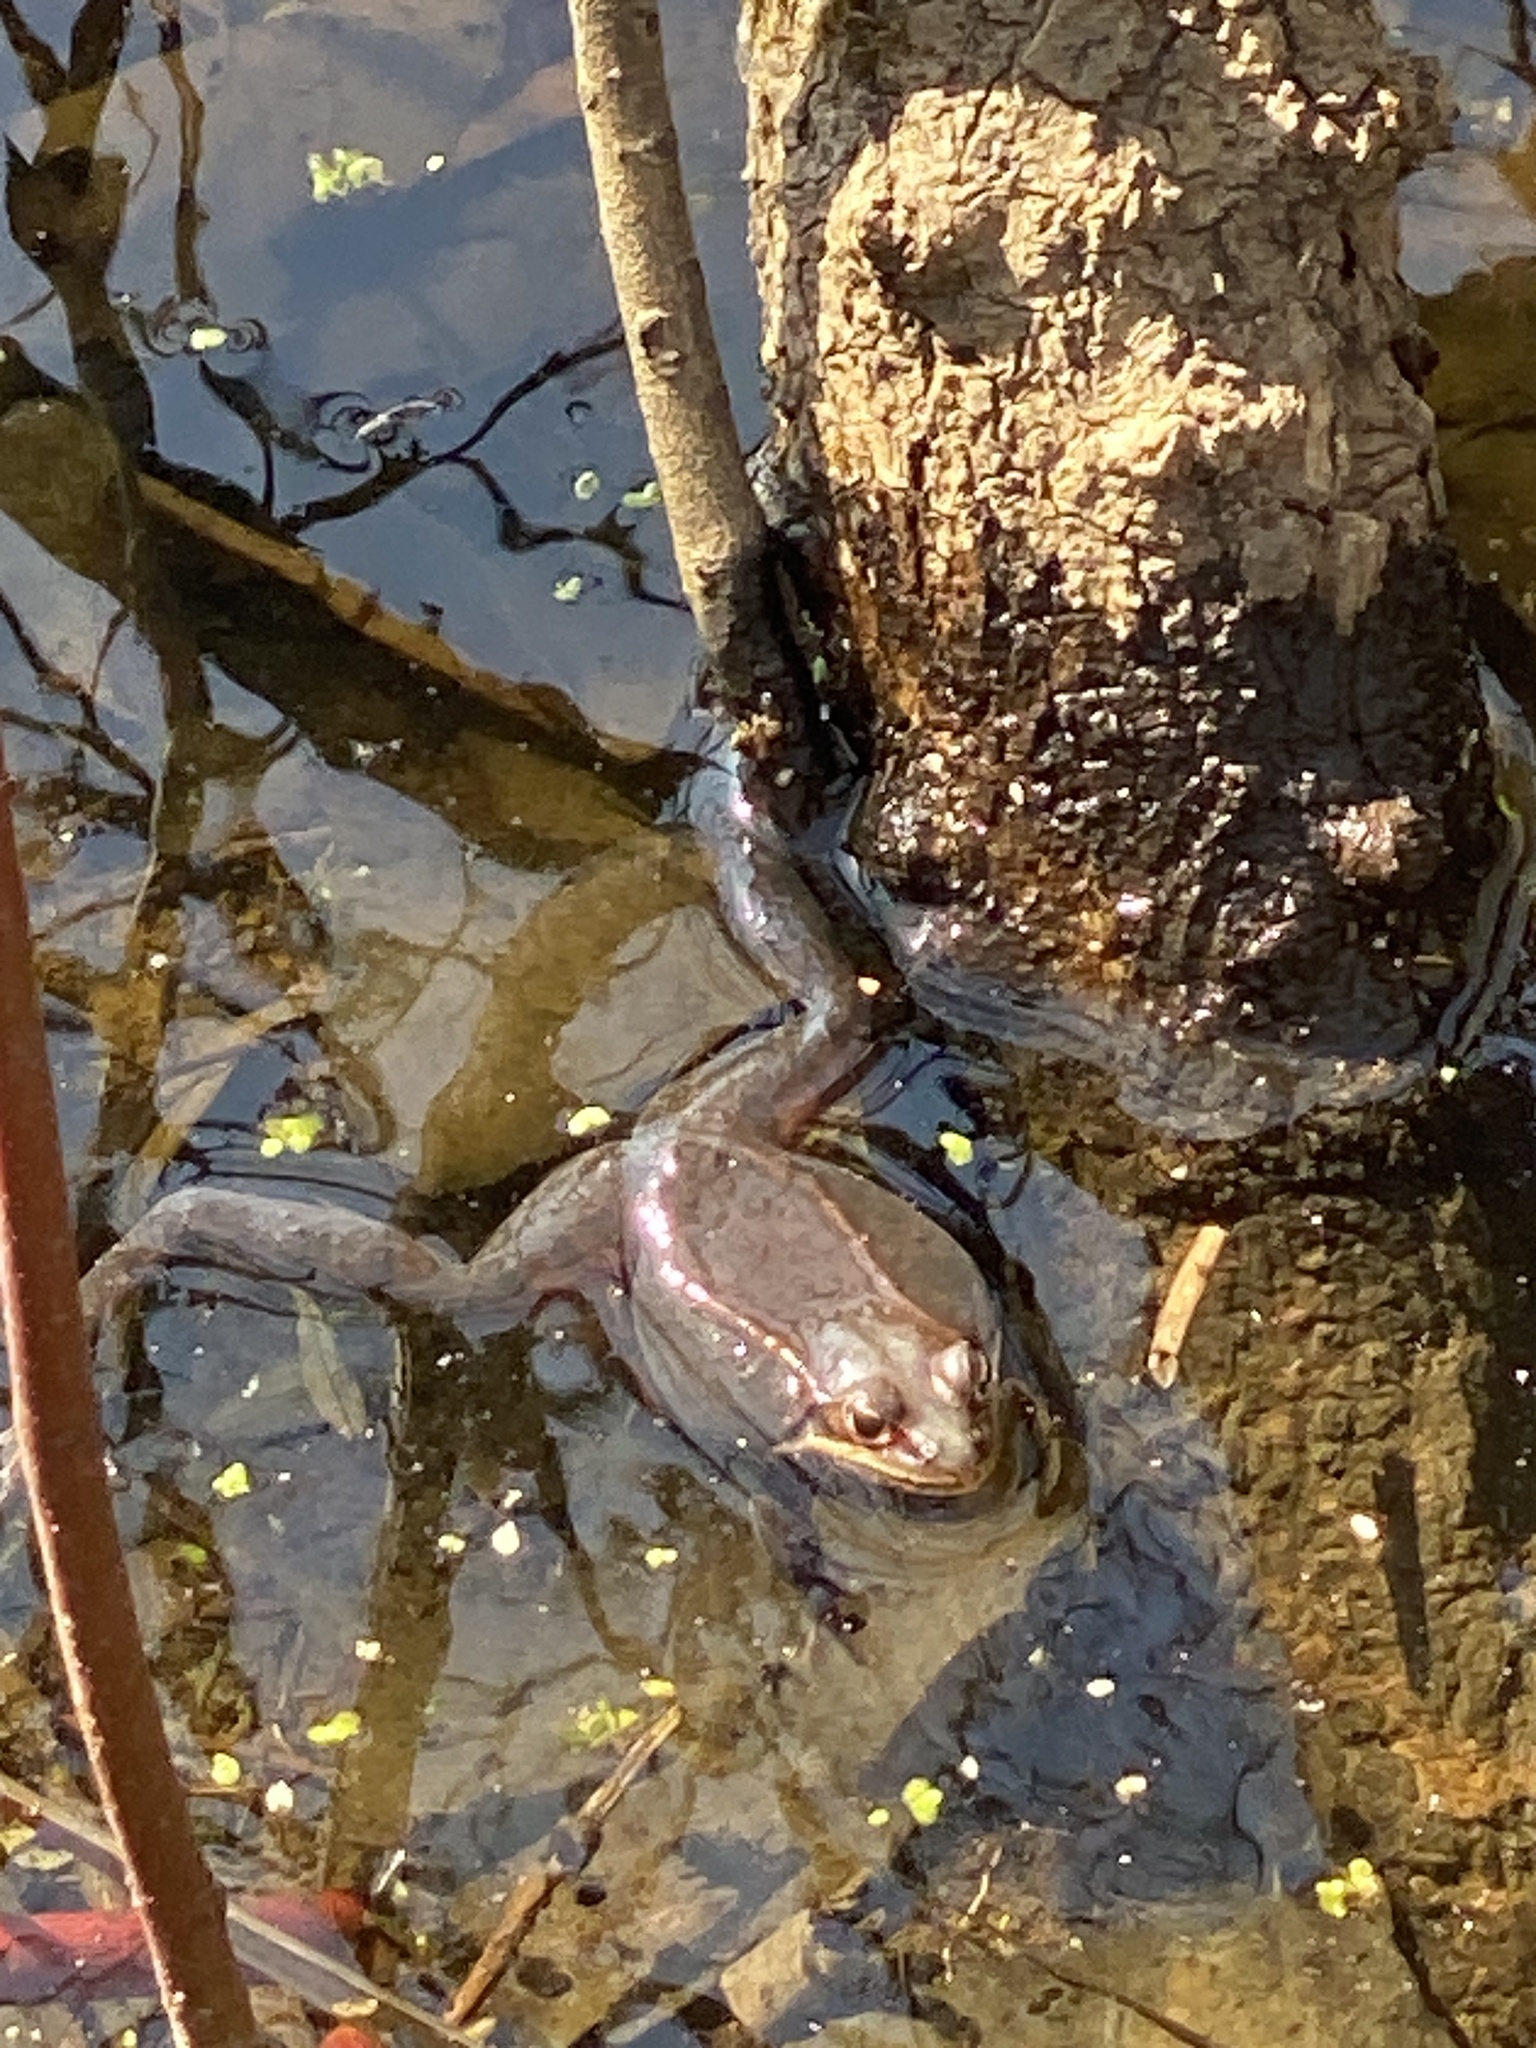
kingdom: Animalia
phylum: Chordata
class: Amphibia
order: Anura
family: Ranidae
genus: Lithobates
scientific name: Lithobates sylvaticus
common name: Wood frog
